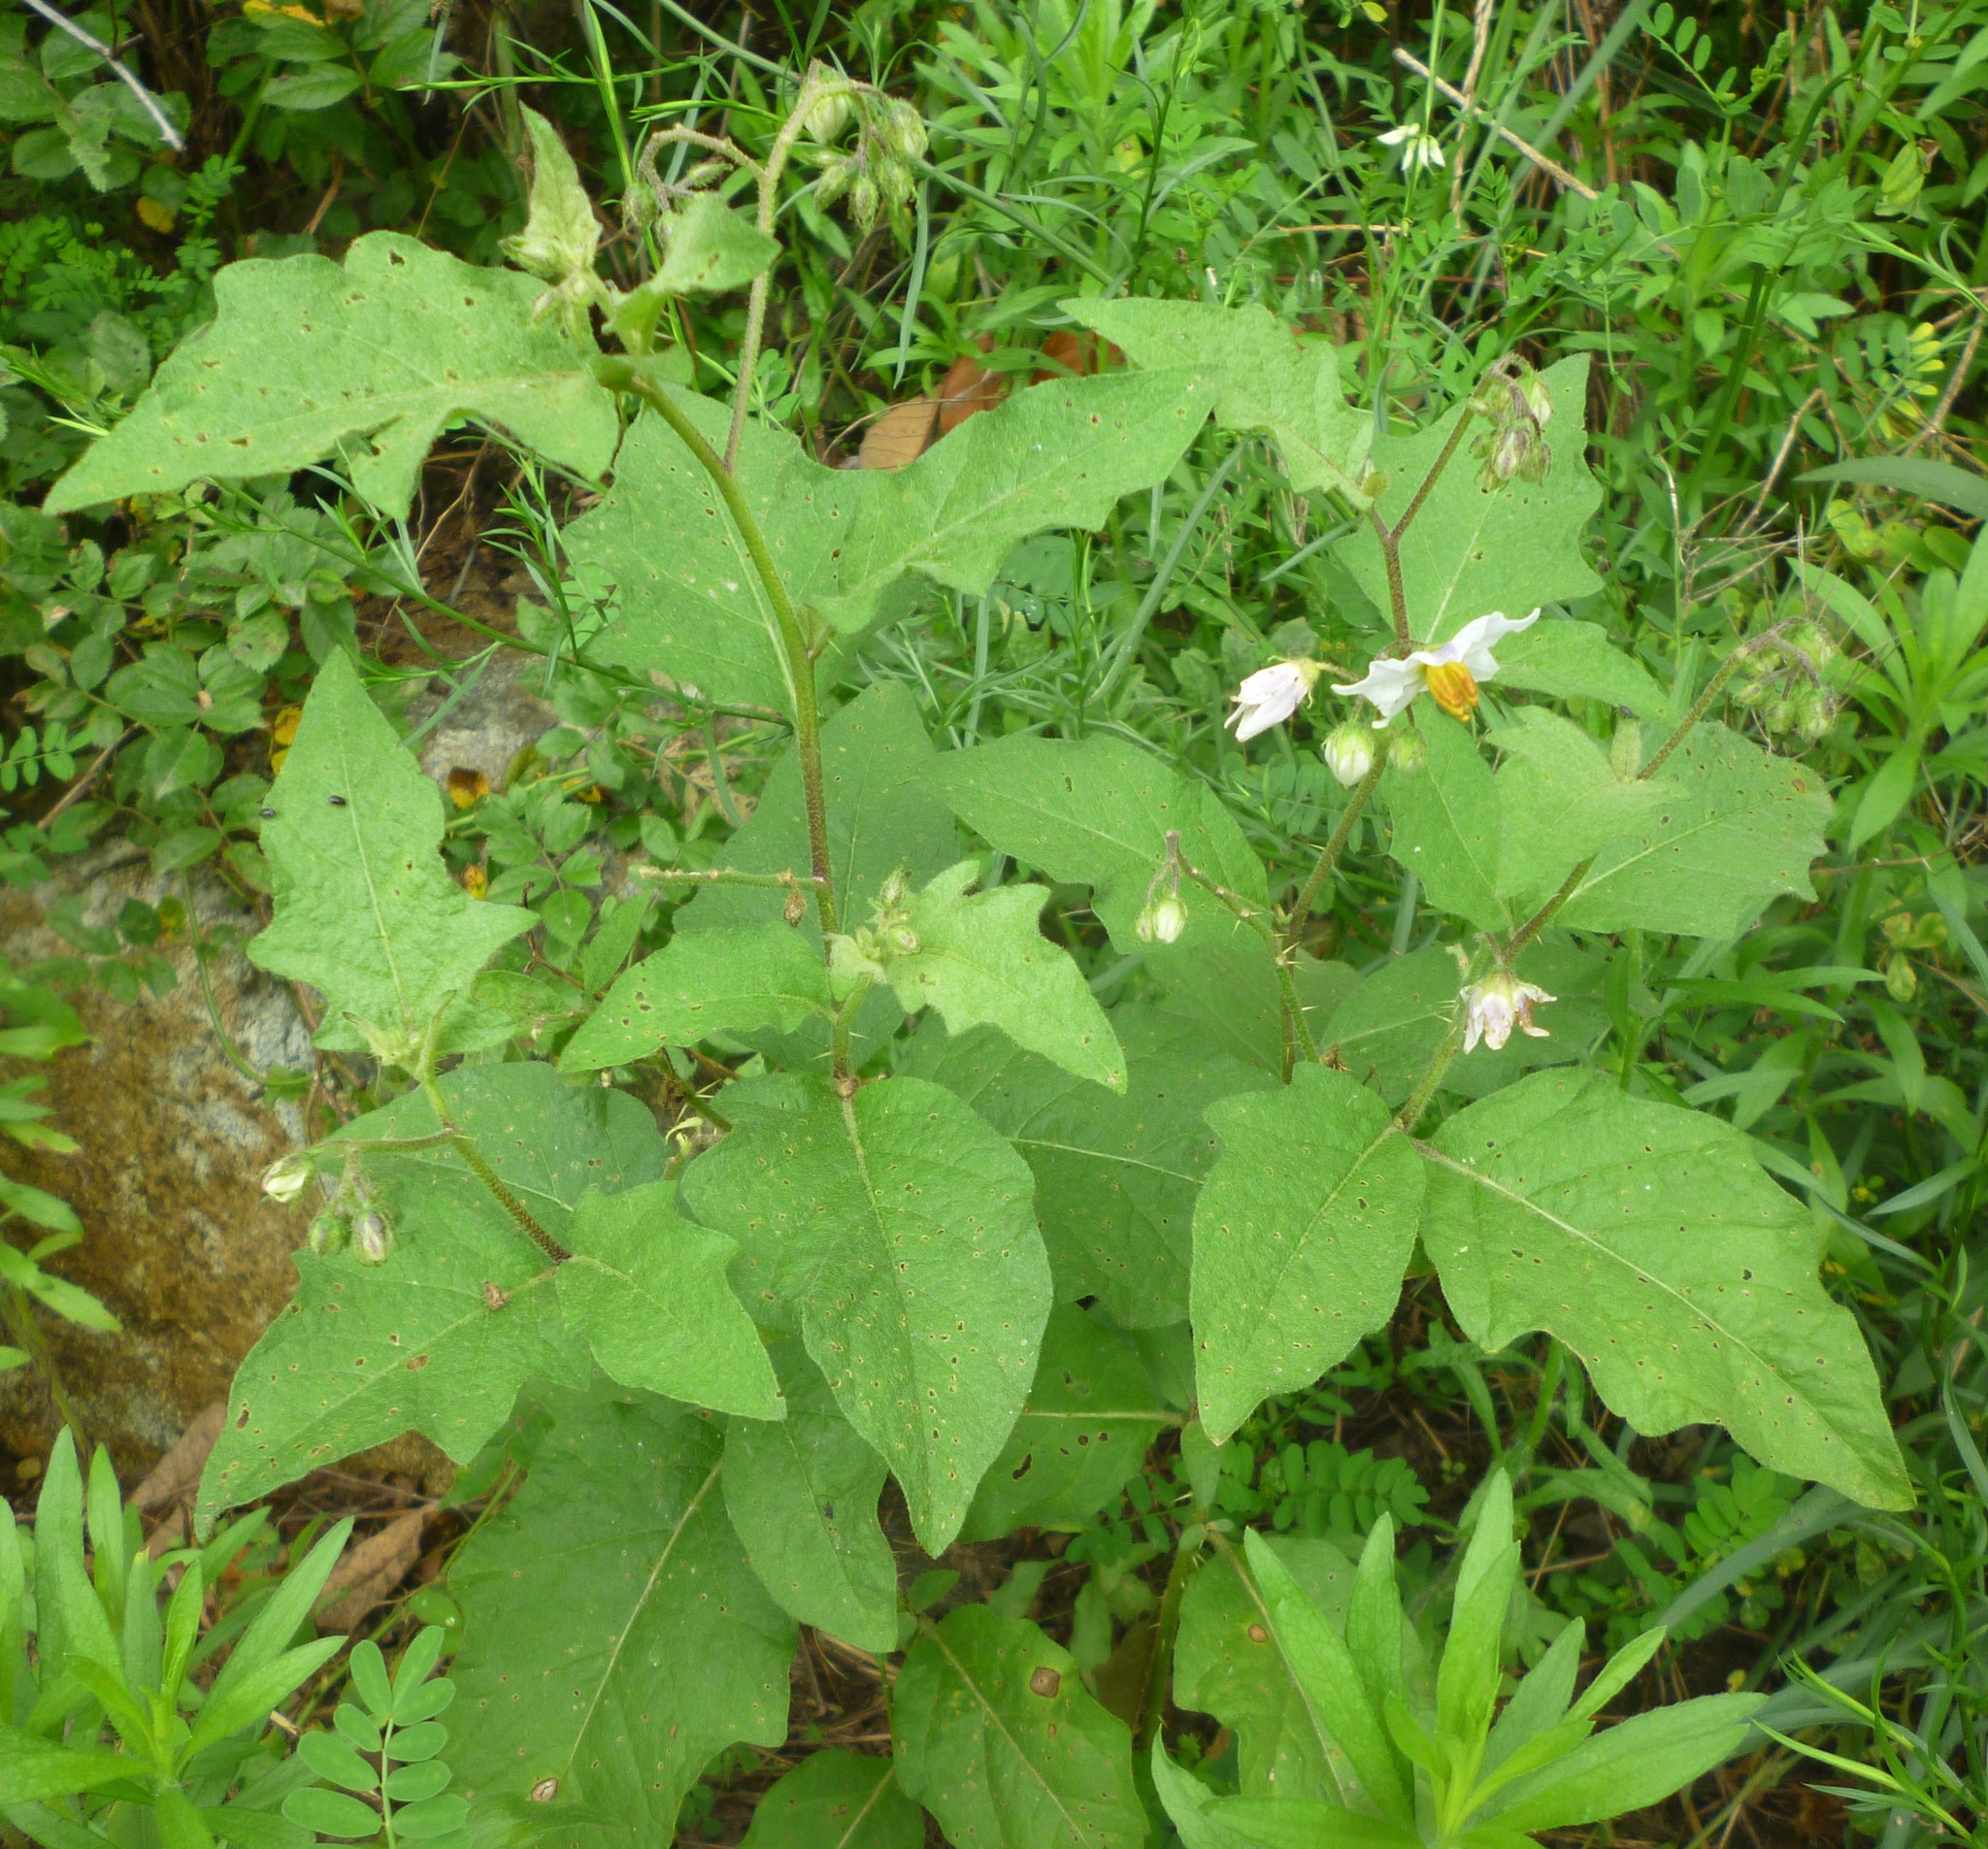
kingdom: Plantae
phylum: Tracheophyta
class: Magnoliopsida
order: Solanales
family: Solanaceae
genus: Solanum
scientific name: Solanum carolinense
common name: Horse-nettle
